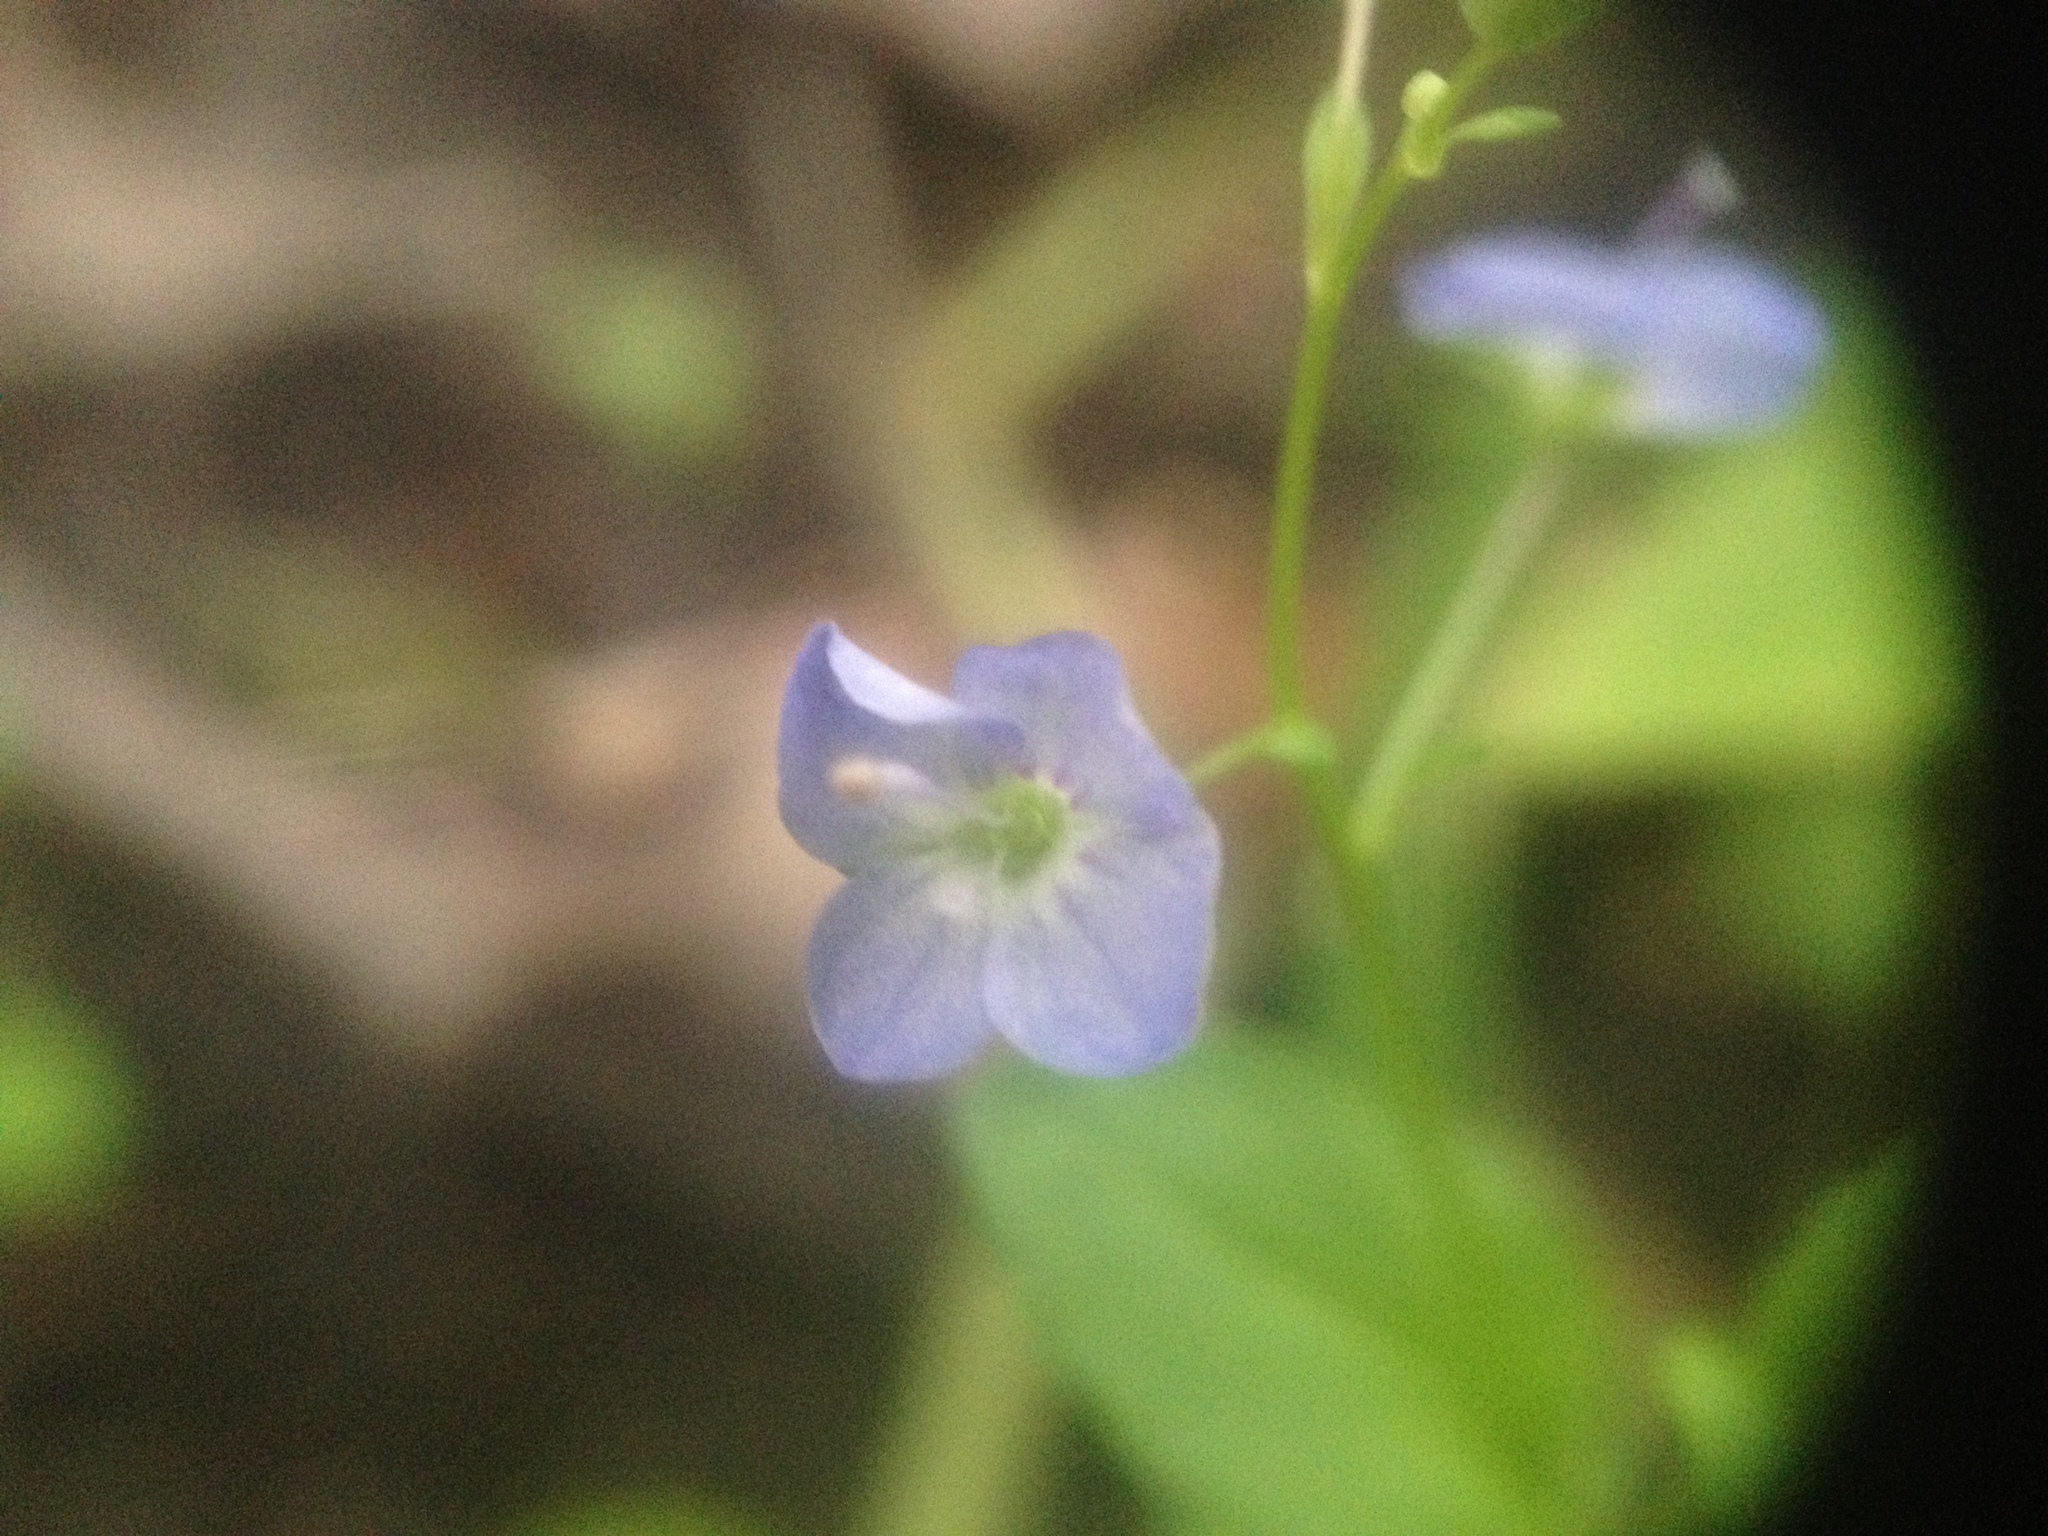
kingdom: Plantae
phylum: Tracheophyta
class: Magnoliopsida
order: Lamiales
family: Plantaginaceae
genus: Veronica
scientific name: Veronica americana
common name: American brooklime
